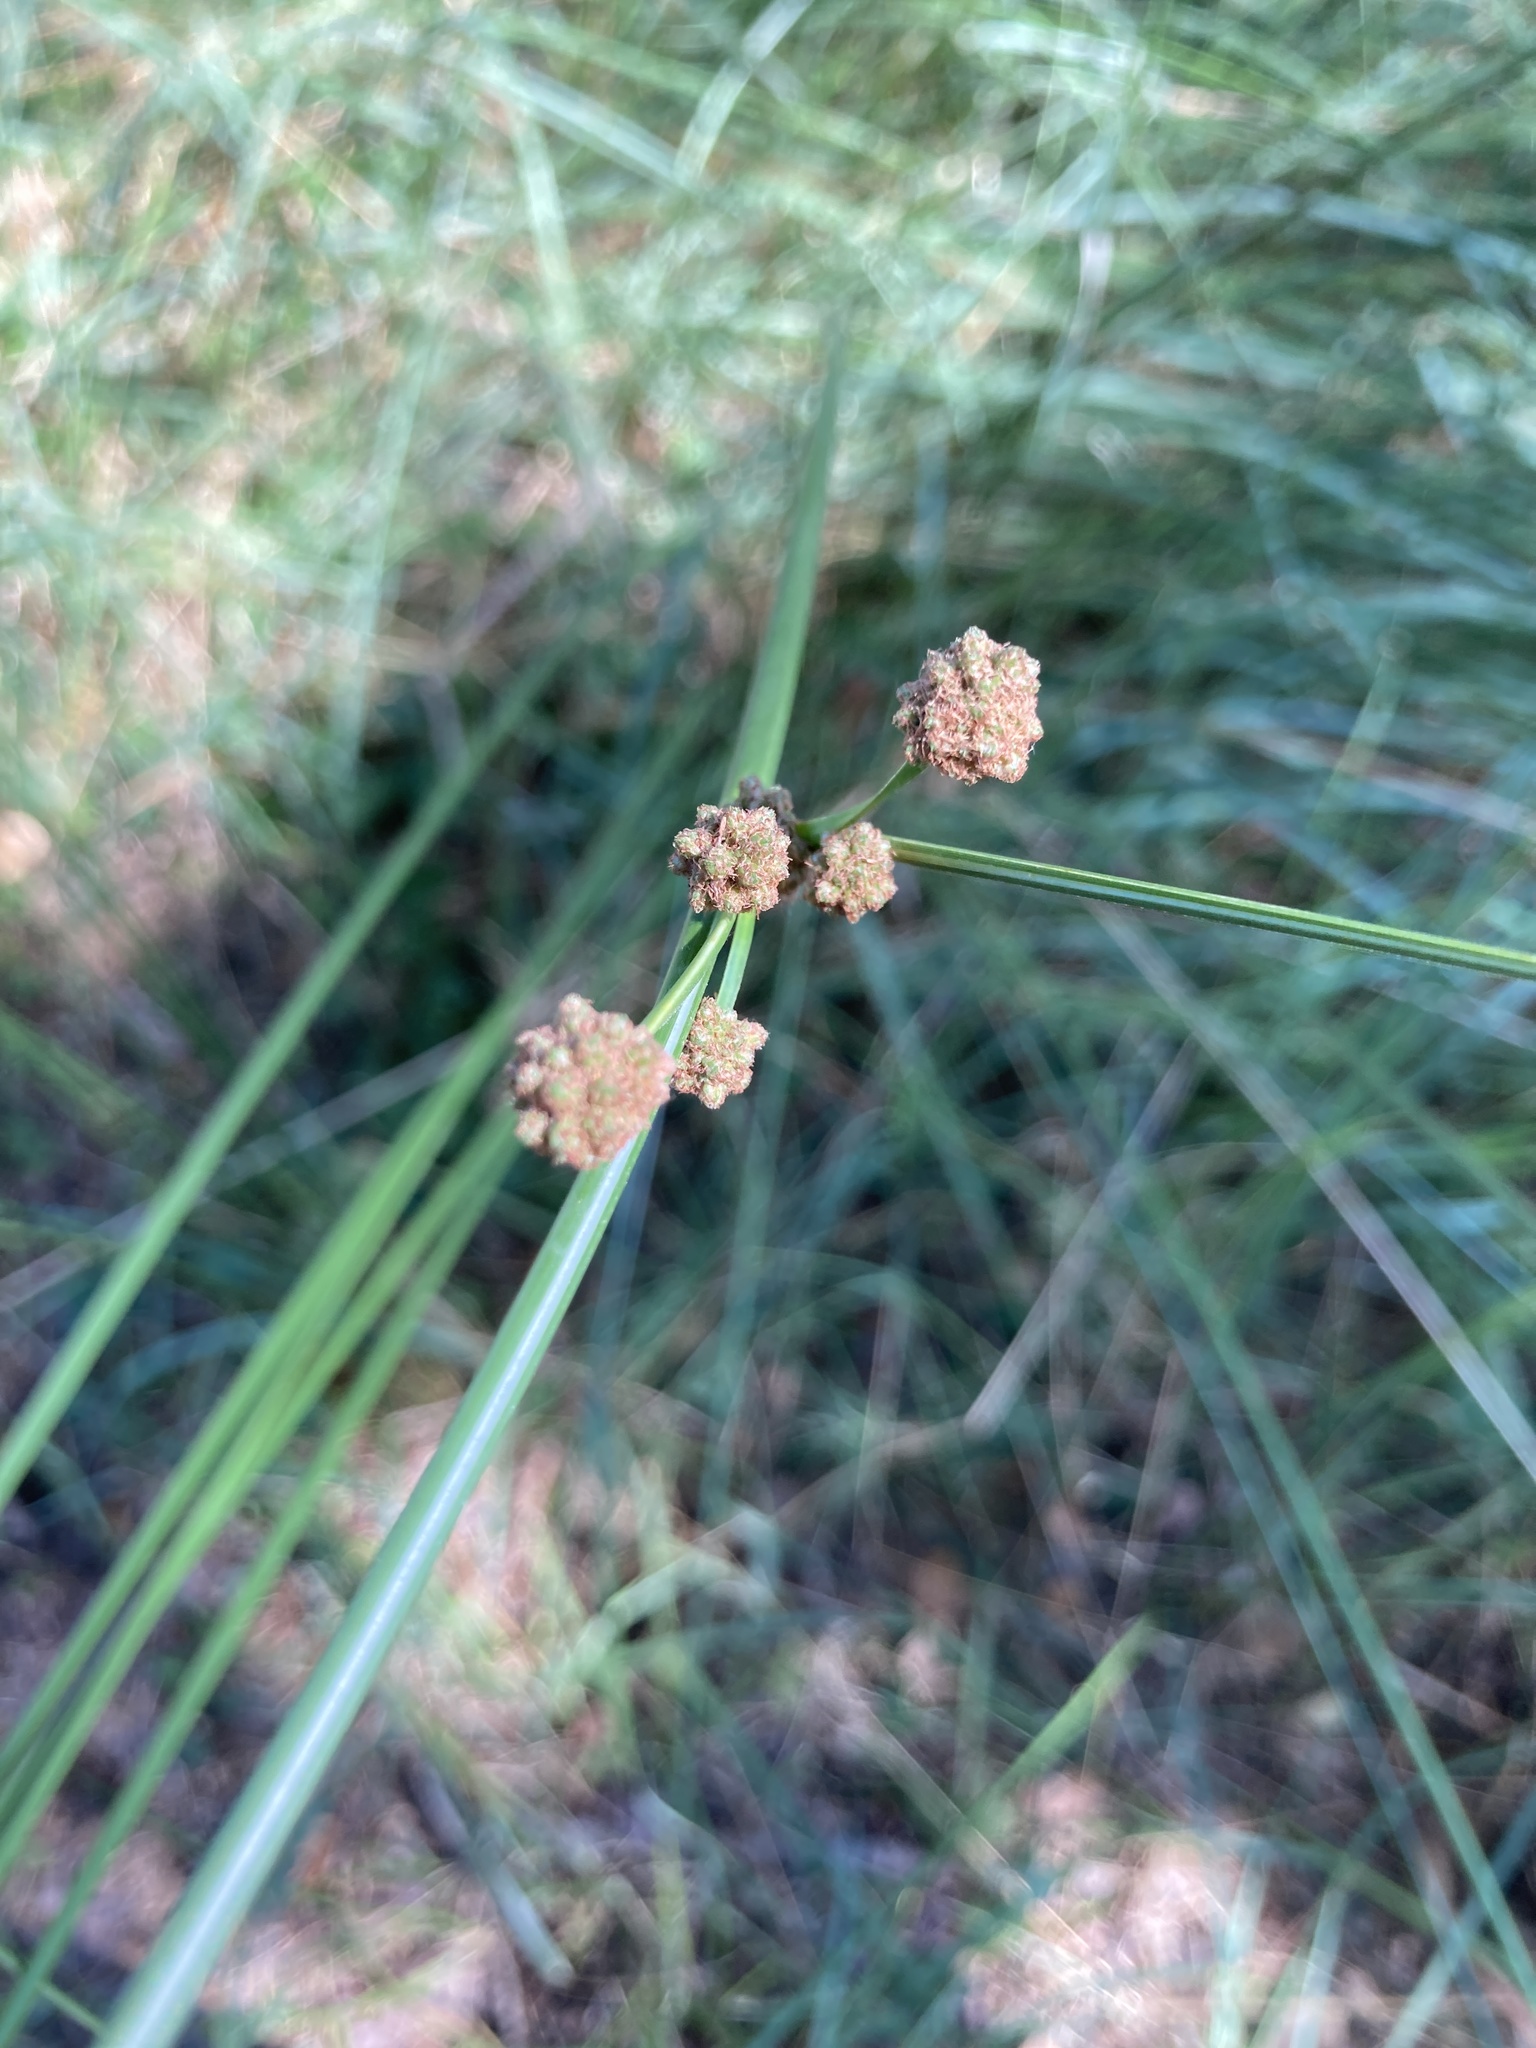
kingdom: Plantae
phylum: Tracheophyta
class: Liliopsida
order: Poales
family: Cyperaceae
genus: Scirpoides
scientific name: Scirpoides holoschoenus
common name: Round-headed club-rush
